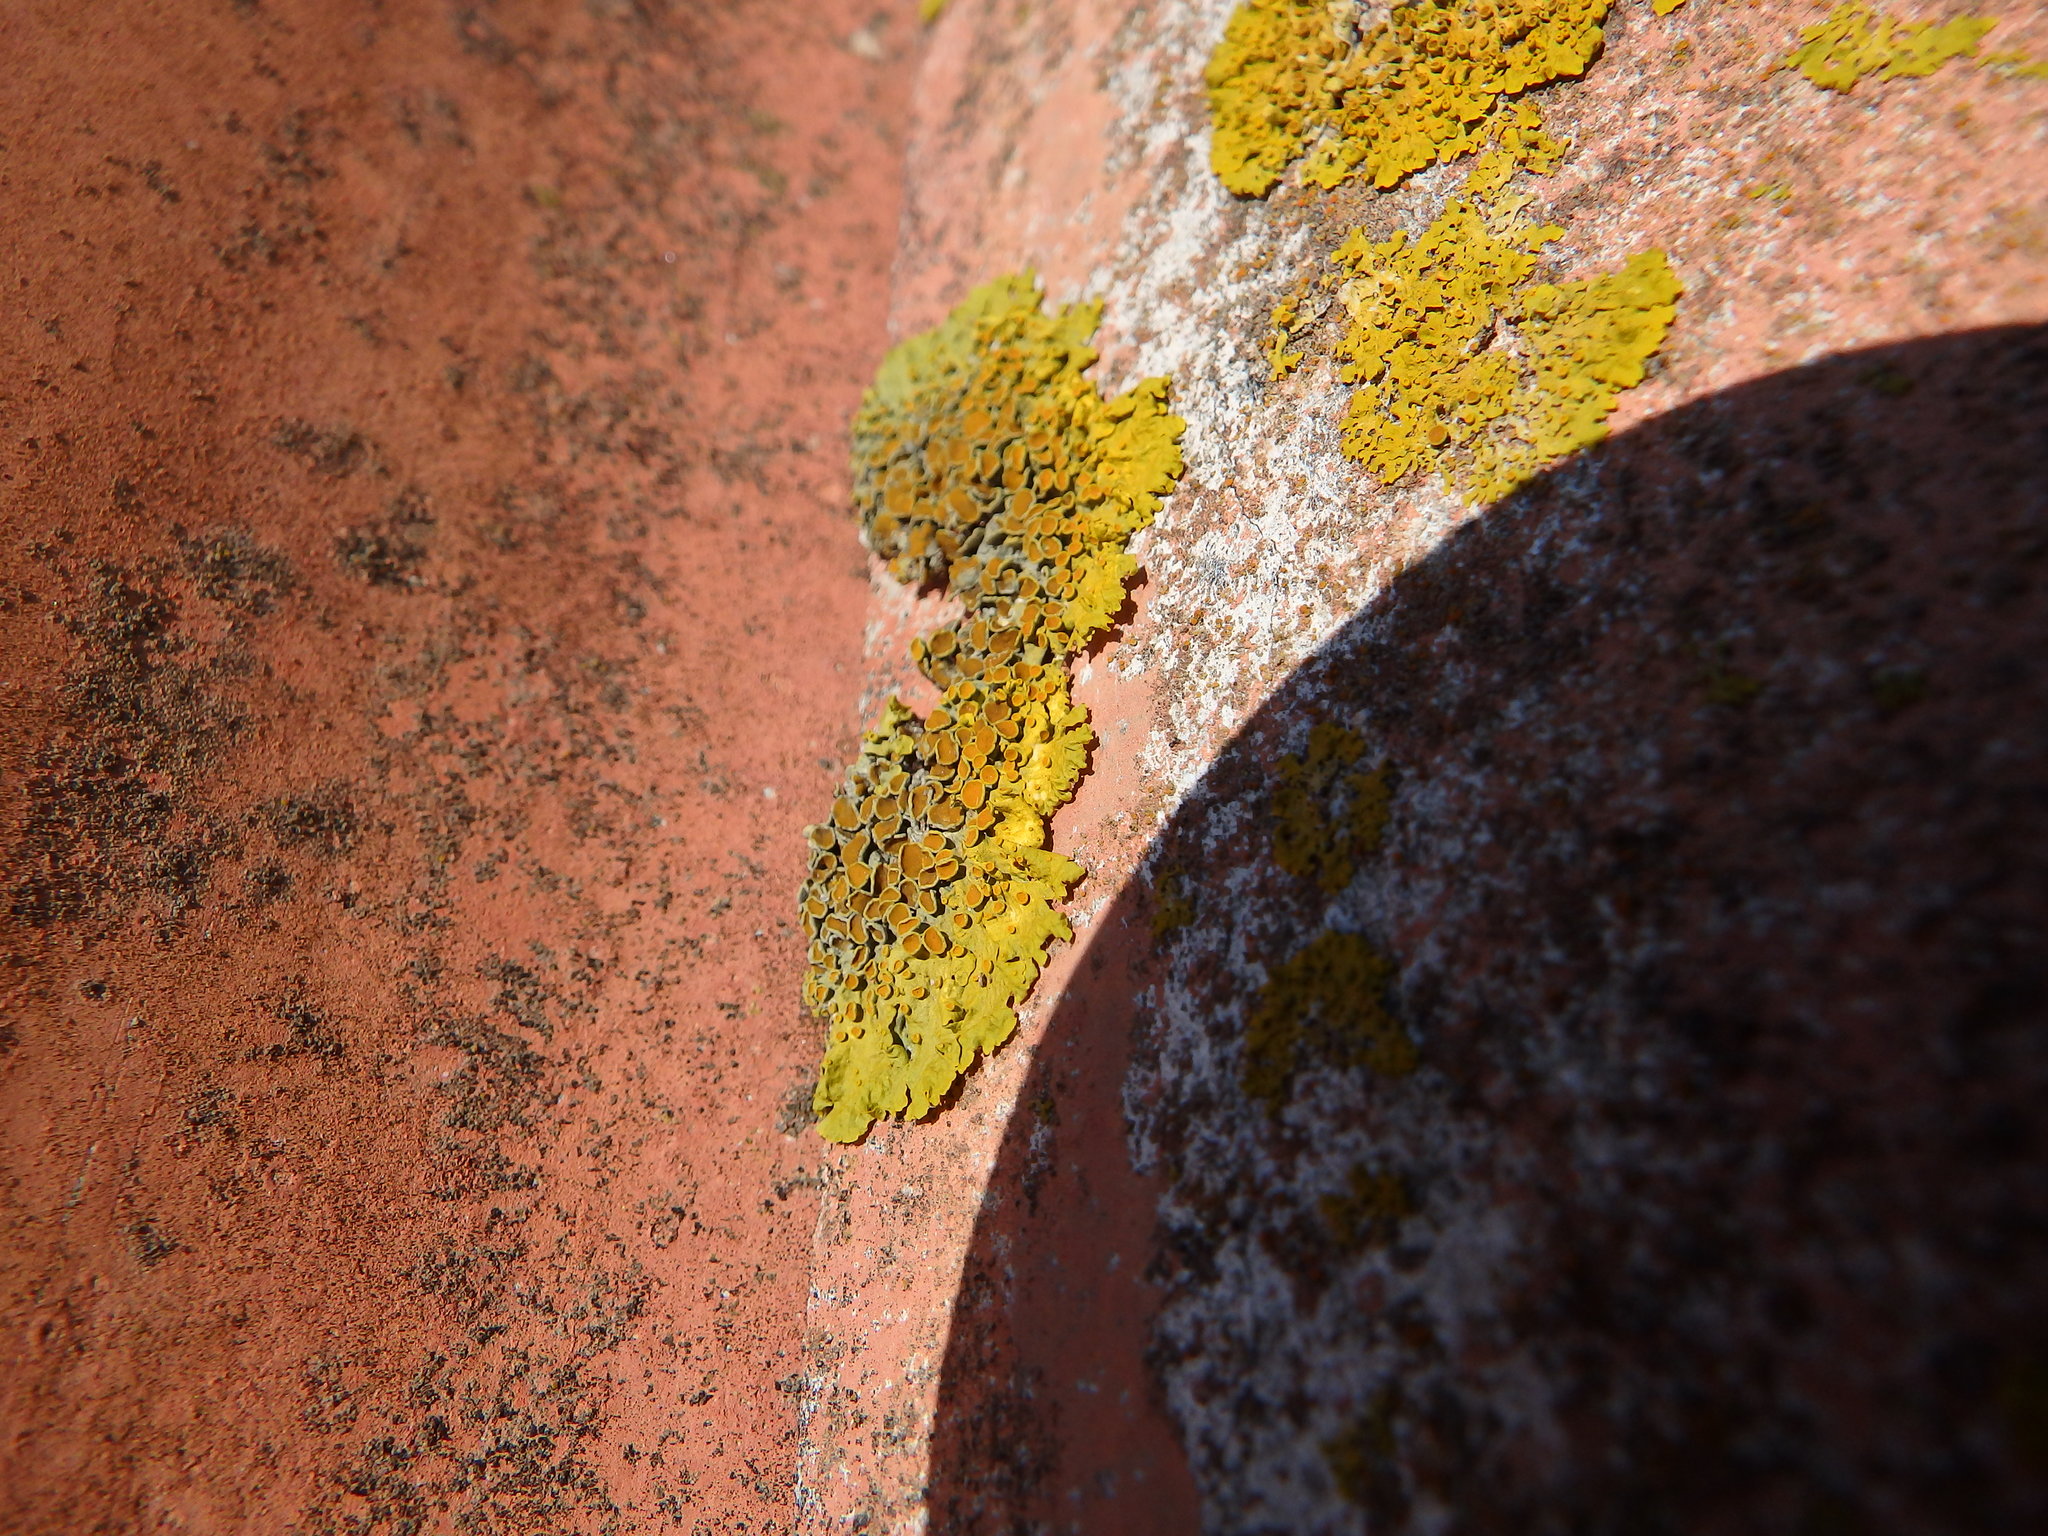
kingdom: Fungi
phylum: Ascomycota
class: Lecanoromycetes
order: Teloschistales
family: Teloschistaceae
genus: Xanthoria
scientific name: Xanthoria parietina
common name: Common orange lichen
